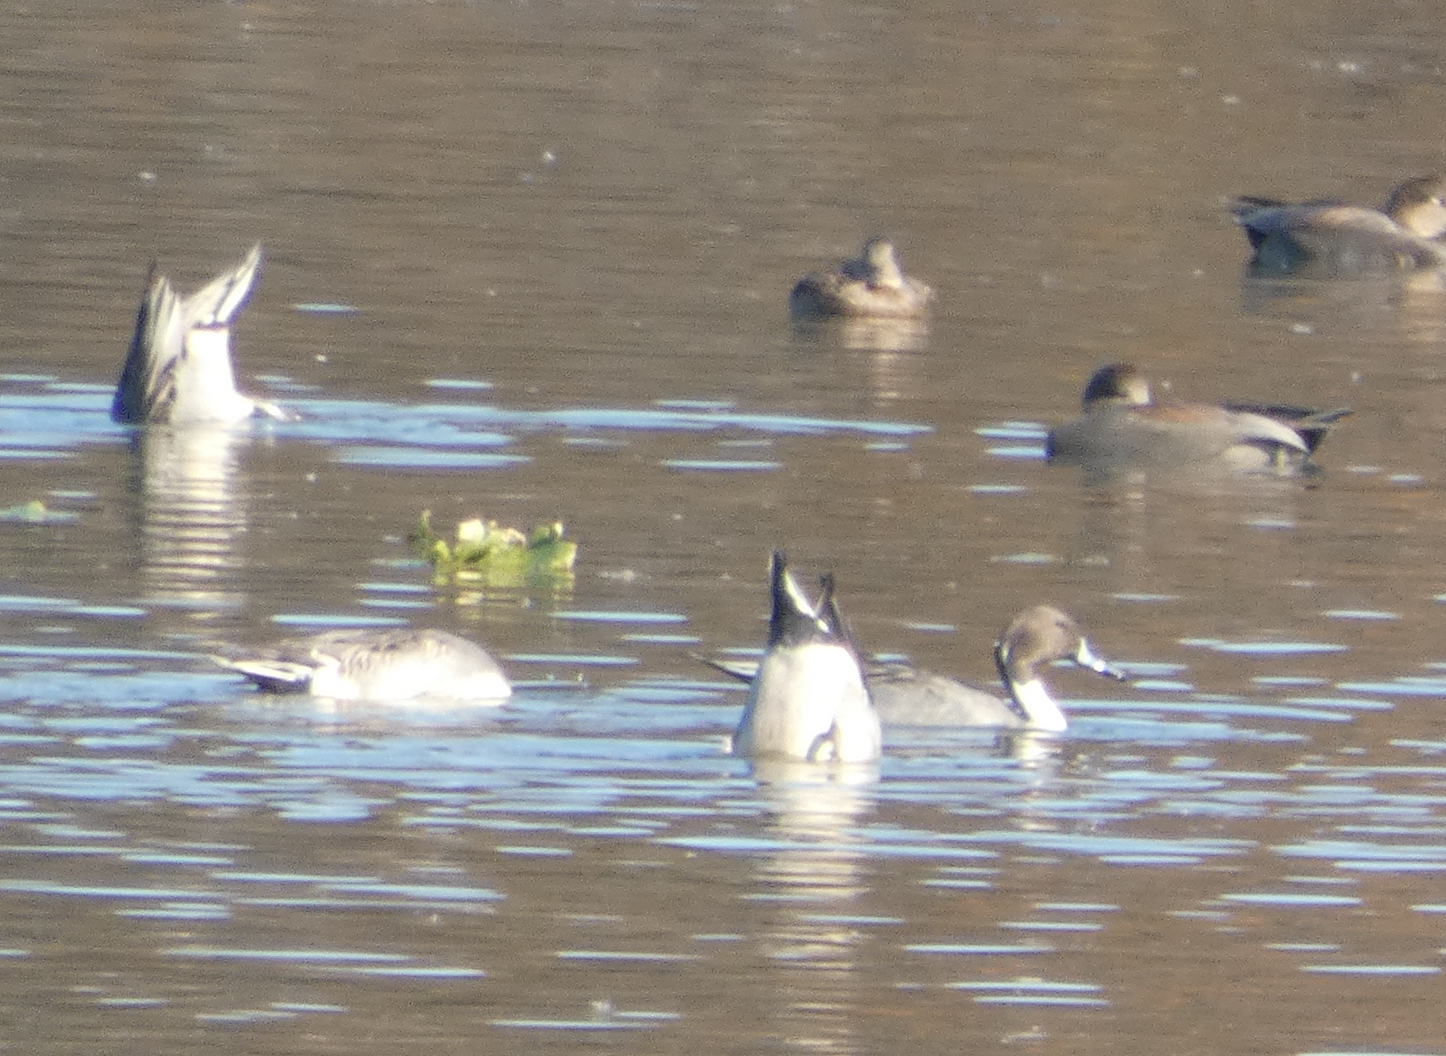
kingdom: Animalia
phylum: Chordata
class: Aves
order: Anseriformes
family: Anatidae
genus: Anas
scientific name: Anas acuta
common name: Northern pintail
